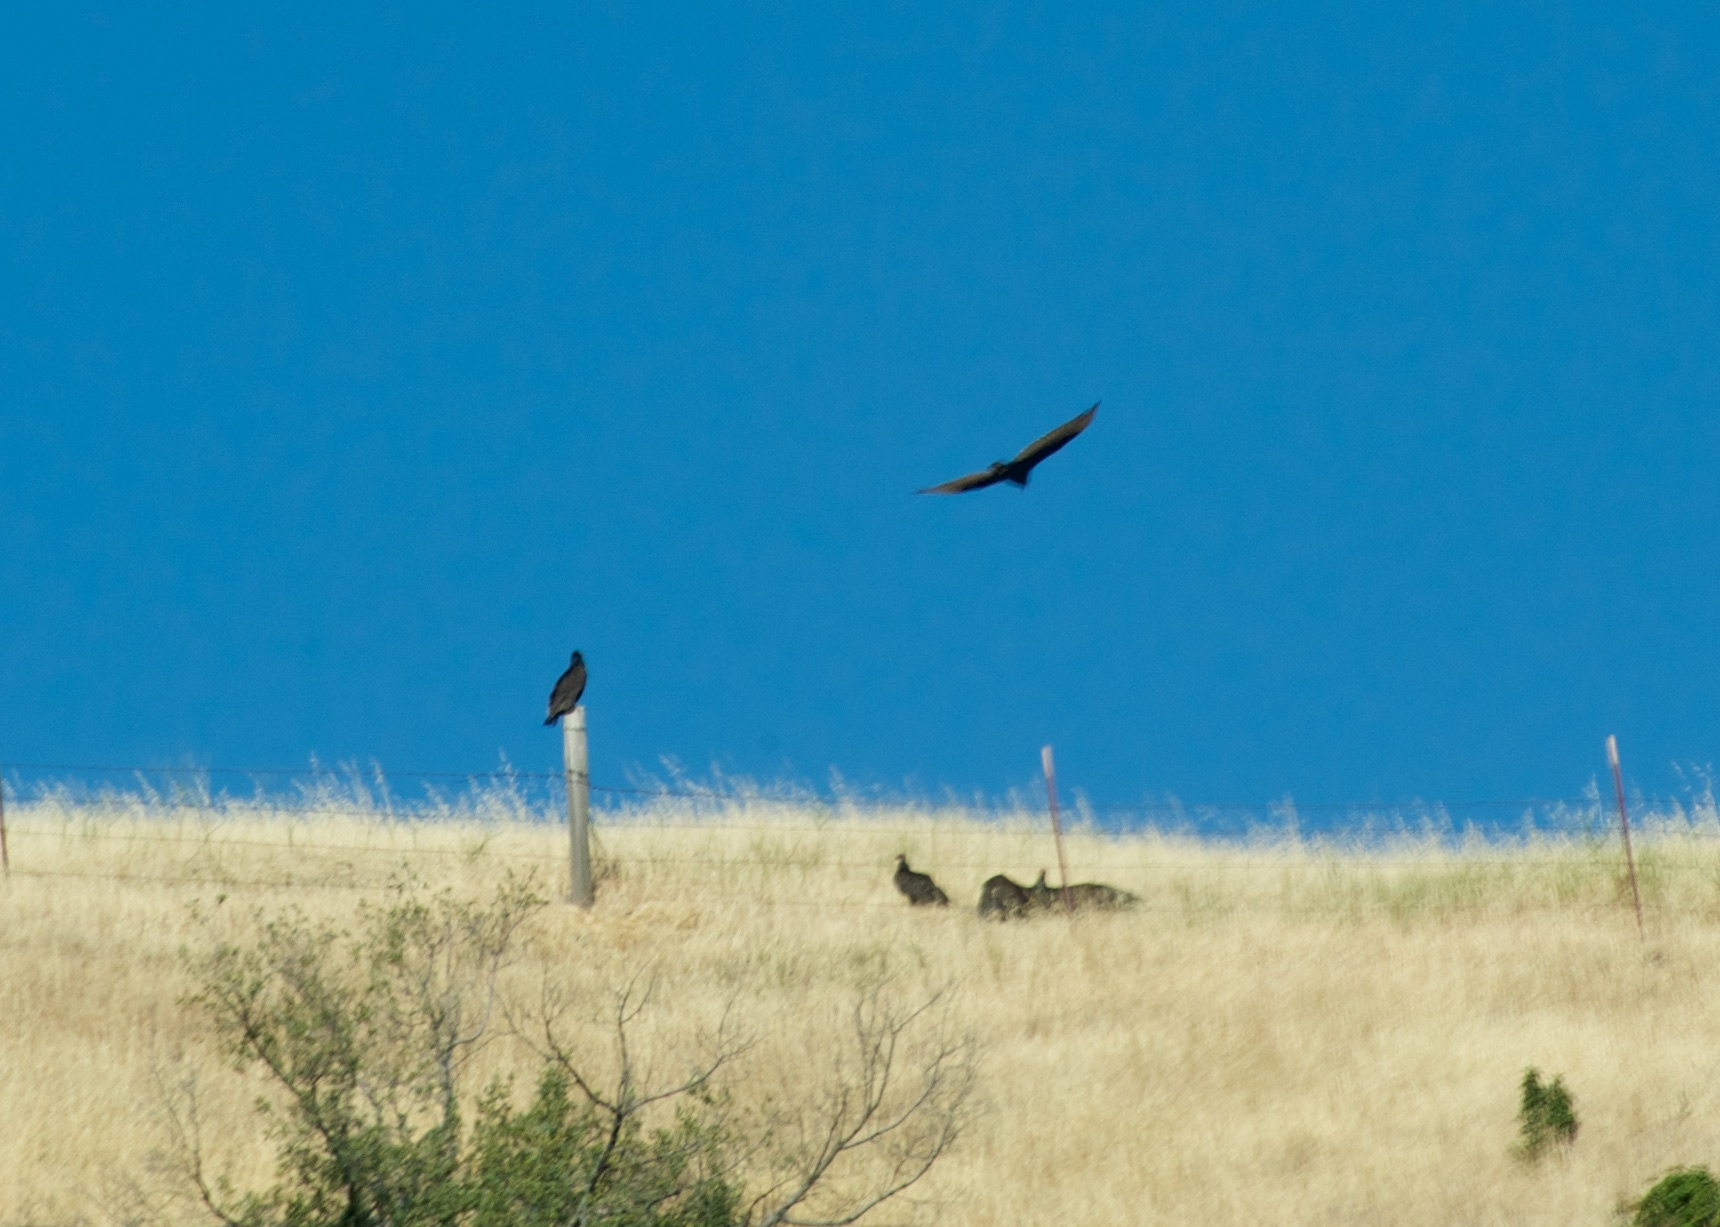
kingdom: Animalia
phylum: Chordata
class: Aves
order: Accipitriformes
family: Cathartidae
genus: Cathartes
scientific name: Cathartes aura
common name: Turkey vulture
